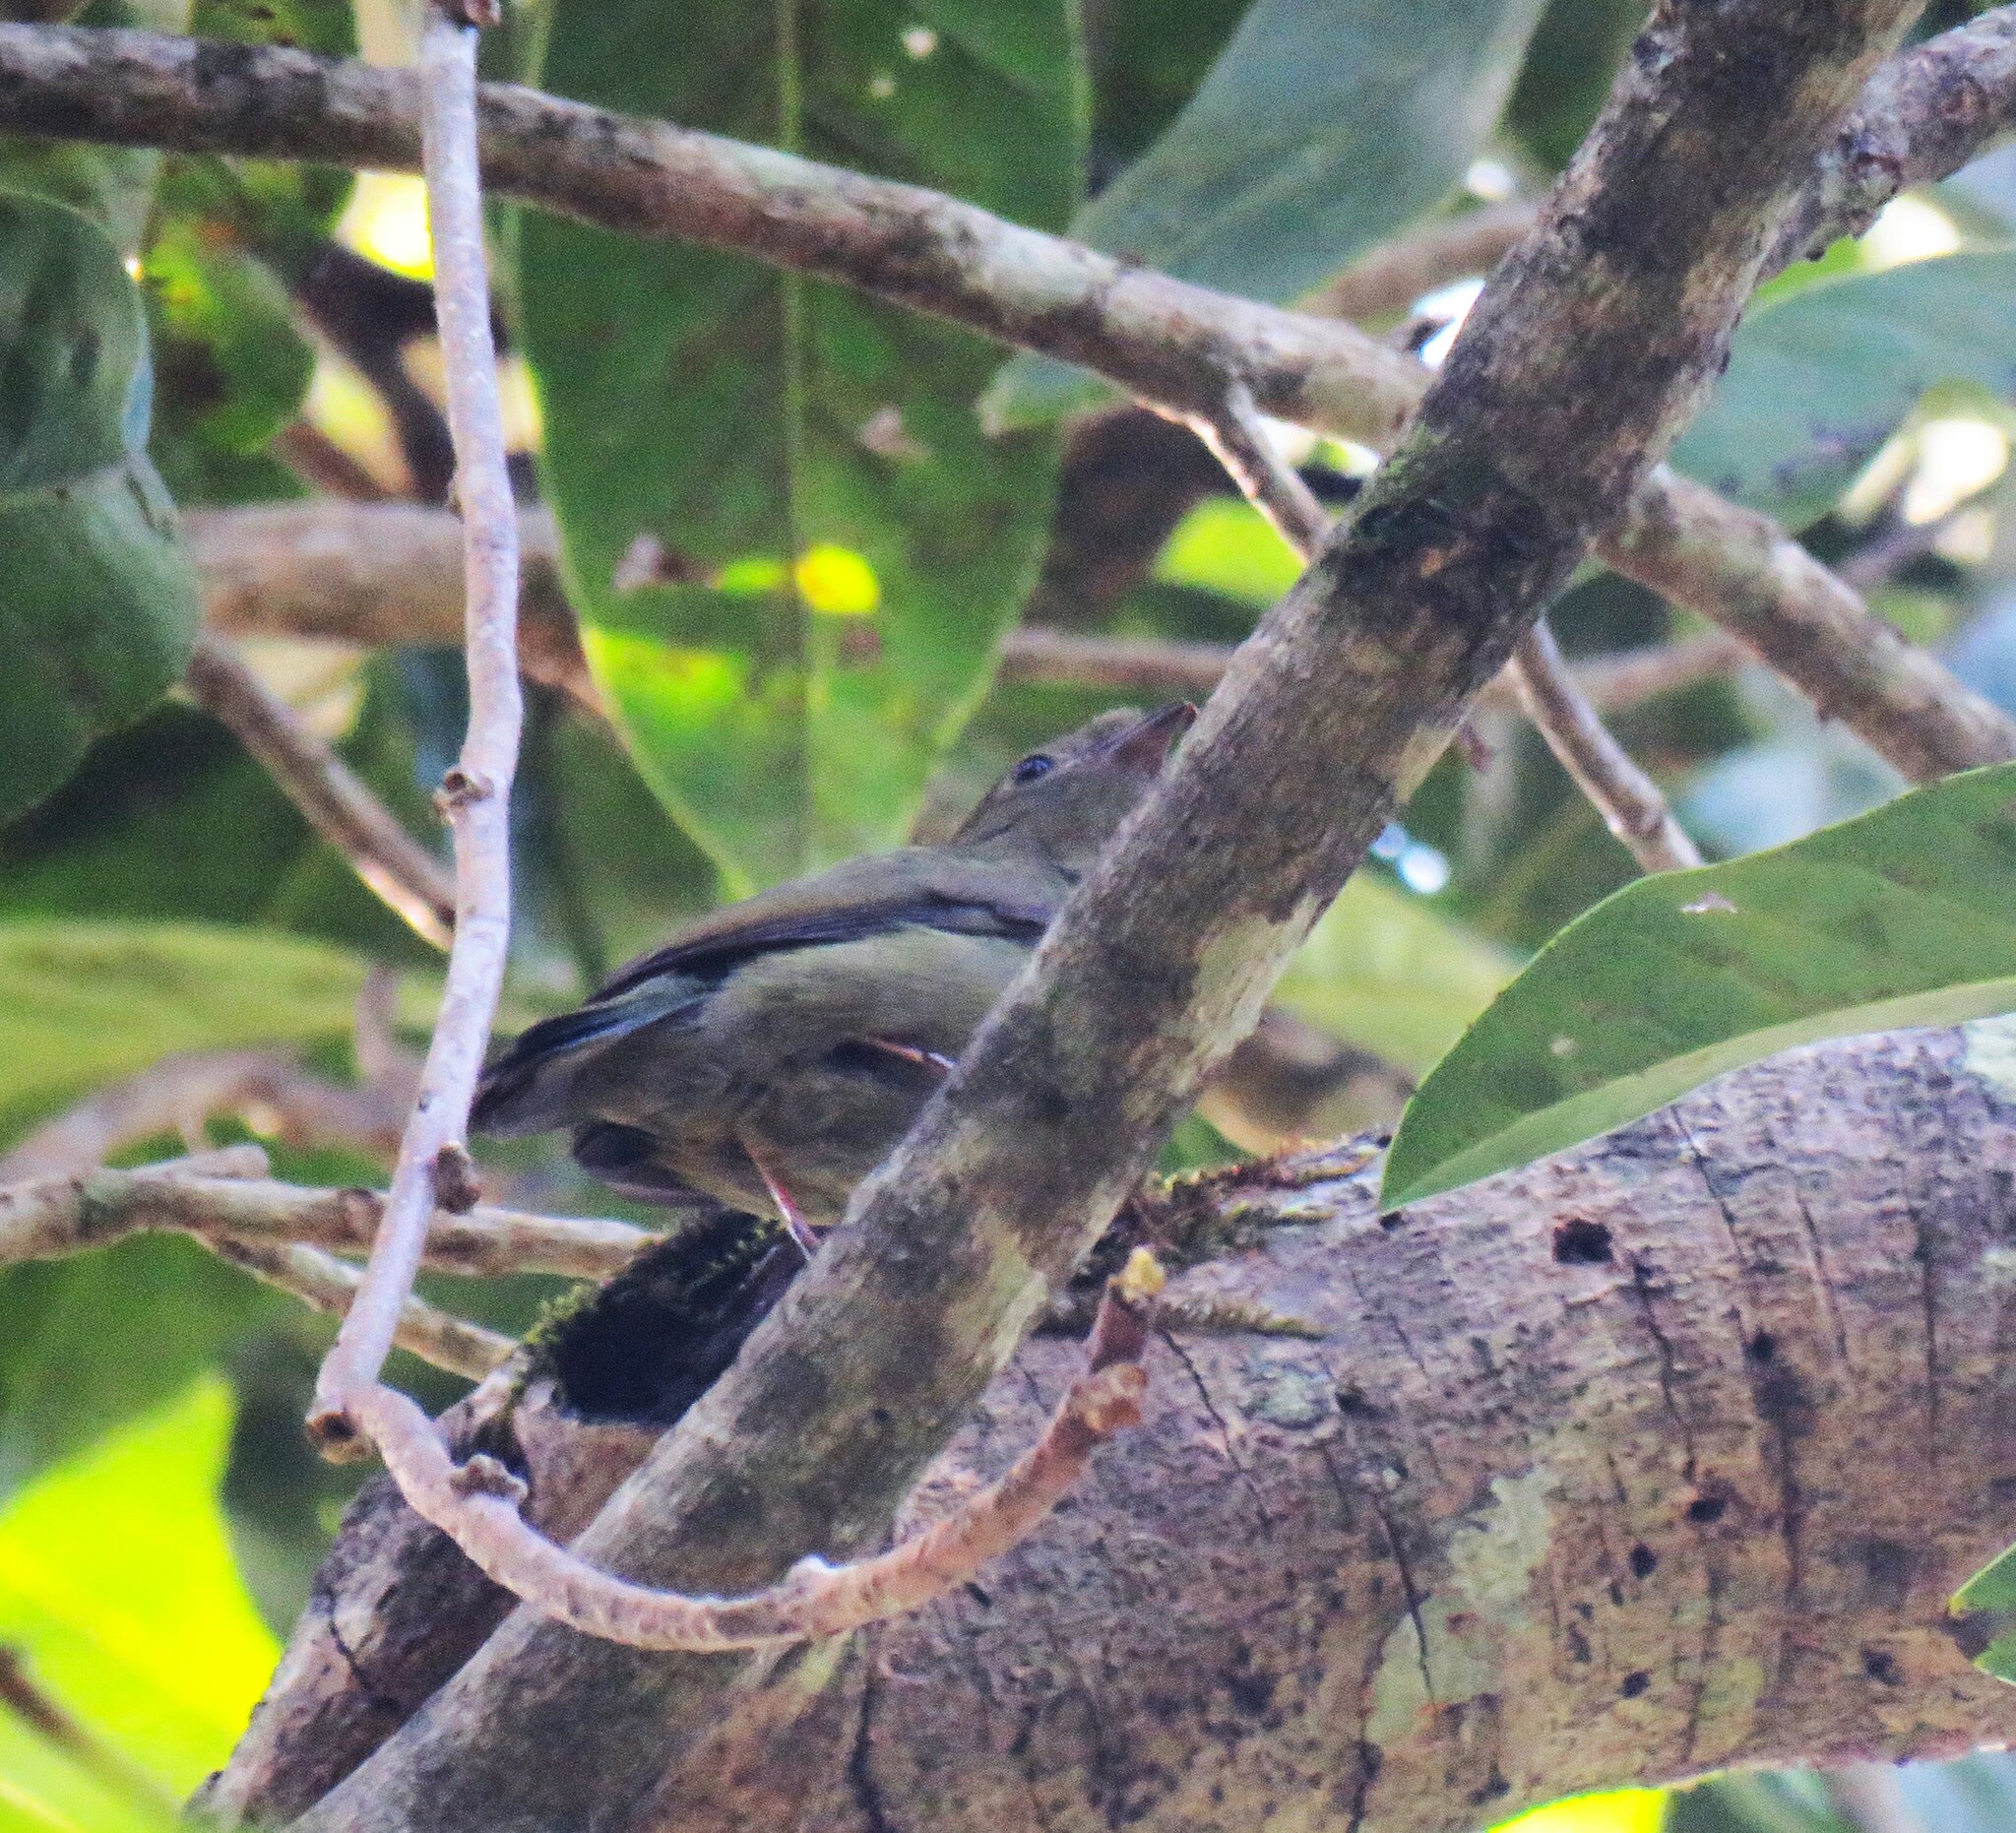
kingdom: Animalia
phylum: Chordata
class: Aves
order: Passeriformes
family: Pipridae
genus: Antilophia
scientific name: Antilophia galeata
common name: Helmeted manakin
